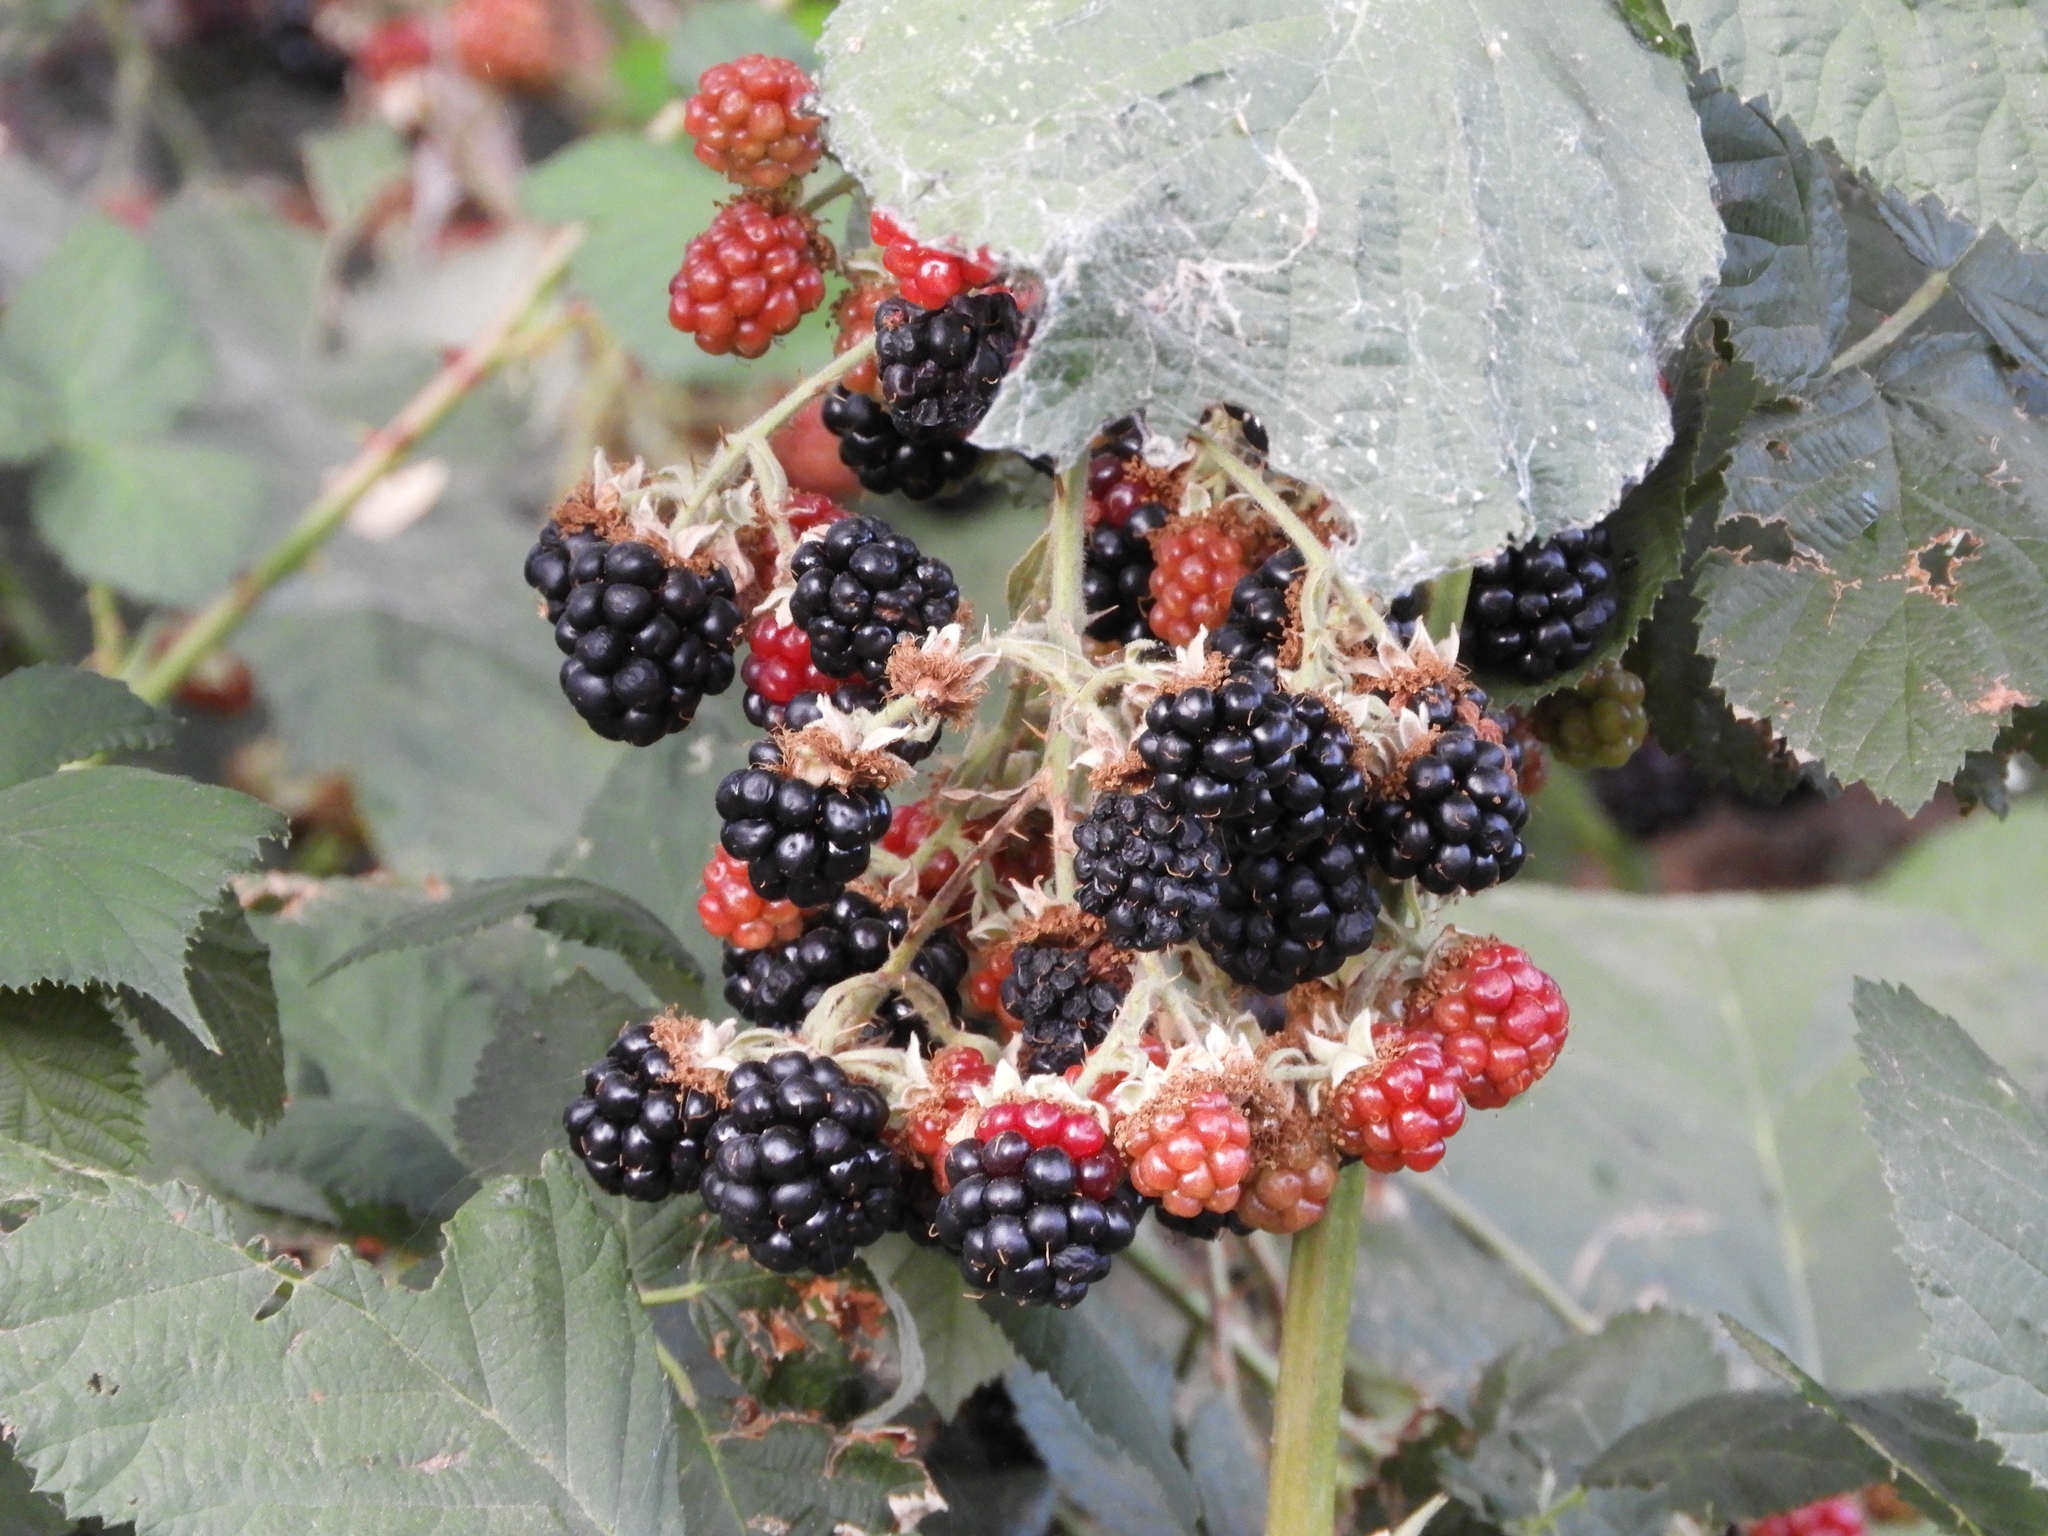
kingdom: Plantae
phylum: Tracheophyta
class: Magnoliopsida
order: Rosales
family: Rosaceae
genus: Rubus
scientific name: Rubus armeniacus
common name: Himalayan blackberry
